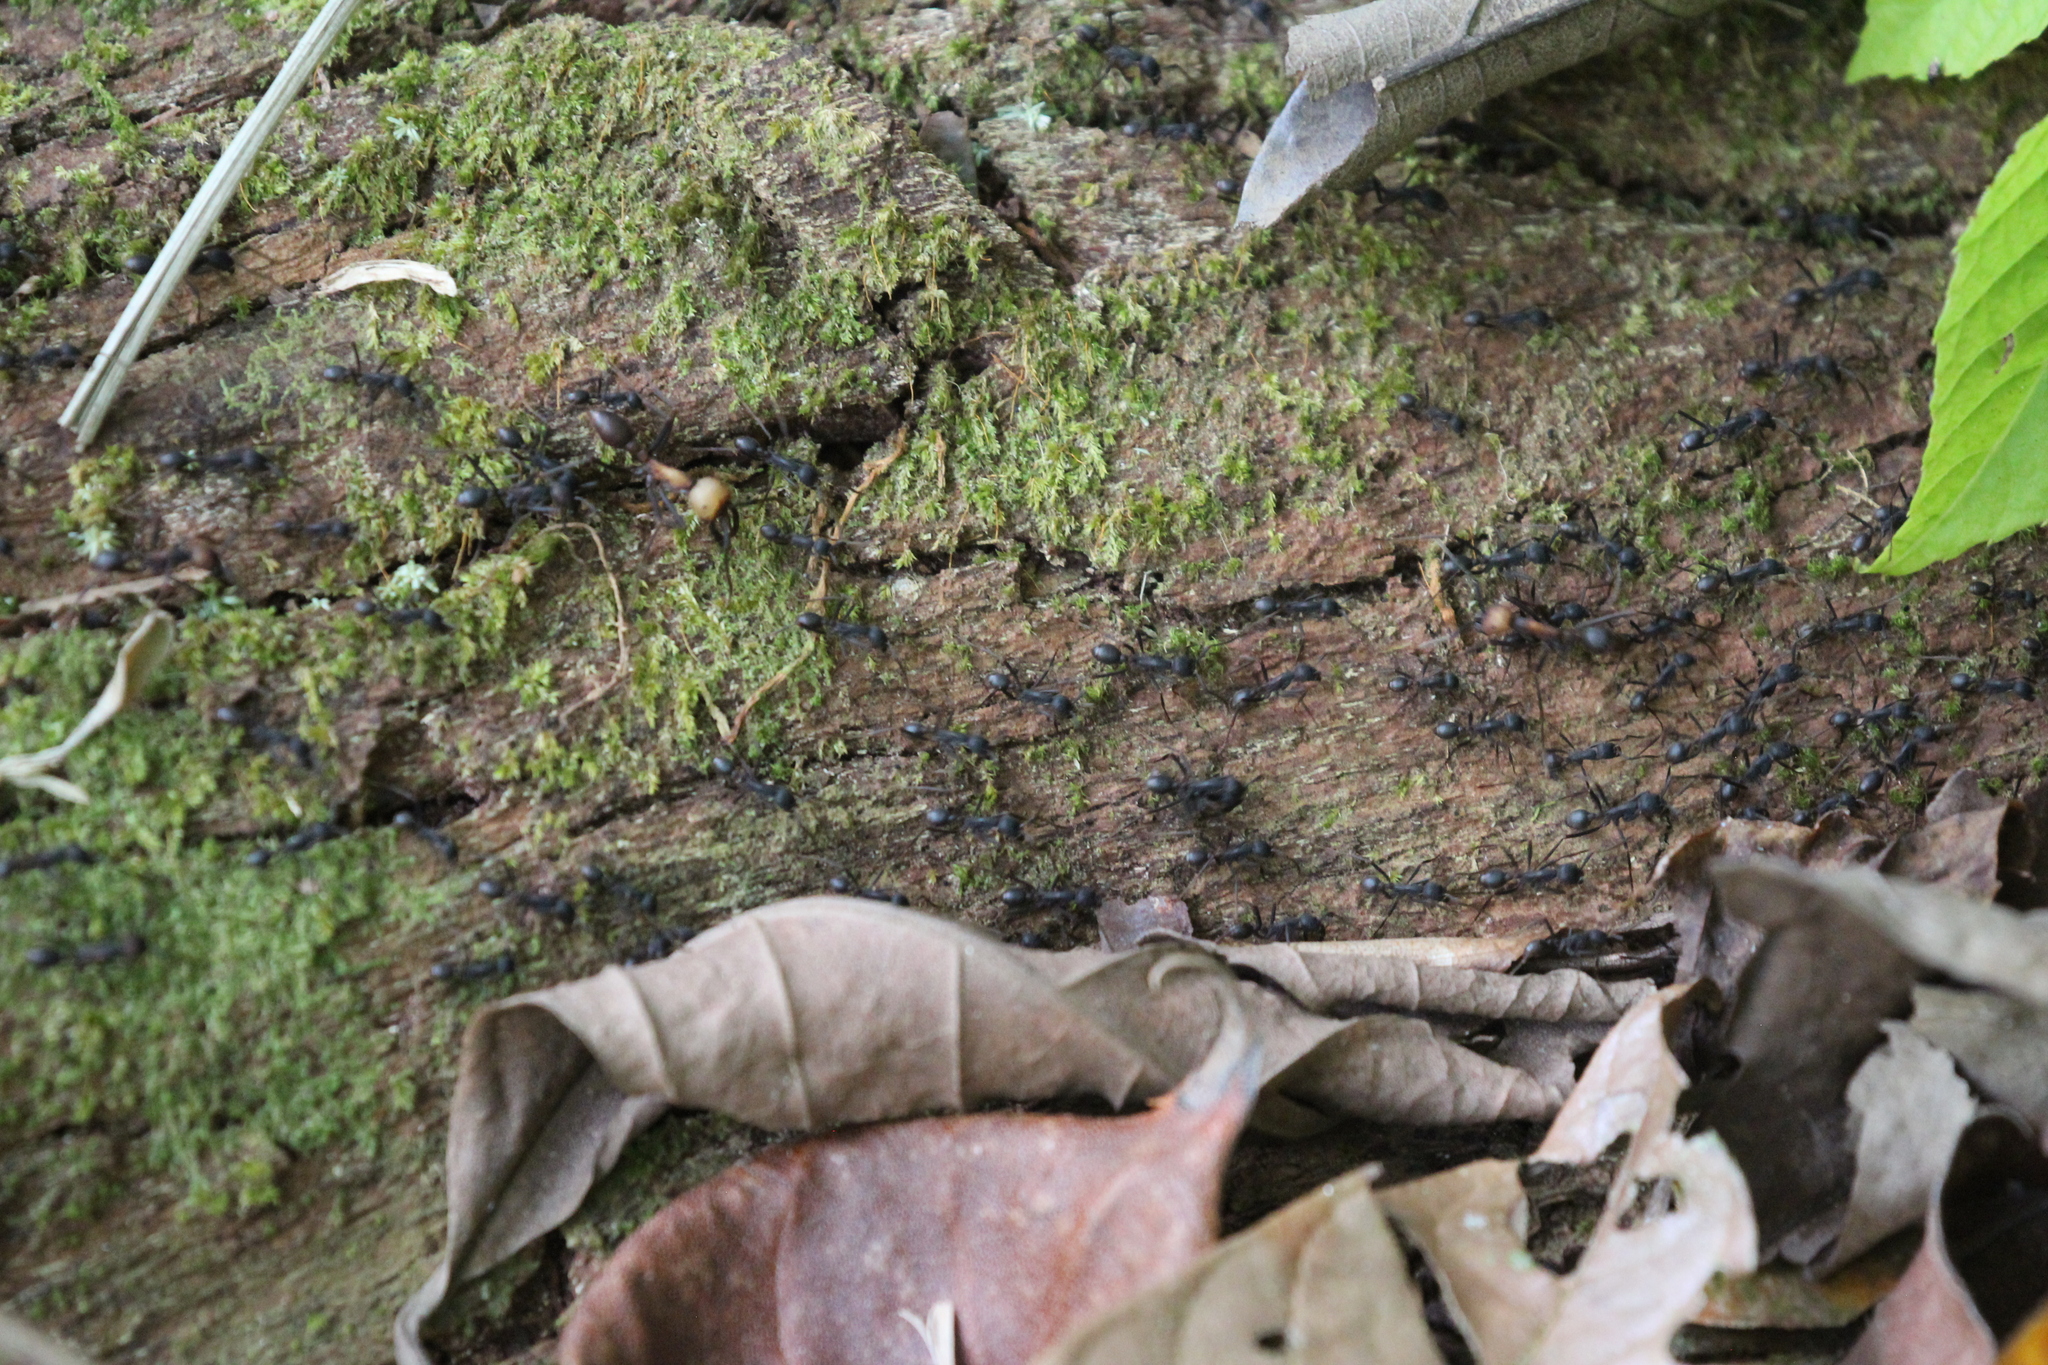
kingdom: Animalia
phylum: Arthropoda
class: Insecta
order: Hymenoptera
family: Formicidae
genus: Eciton
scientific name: Eciton burchellii
